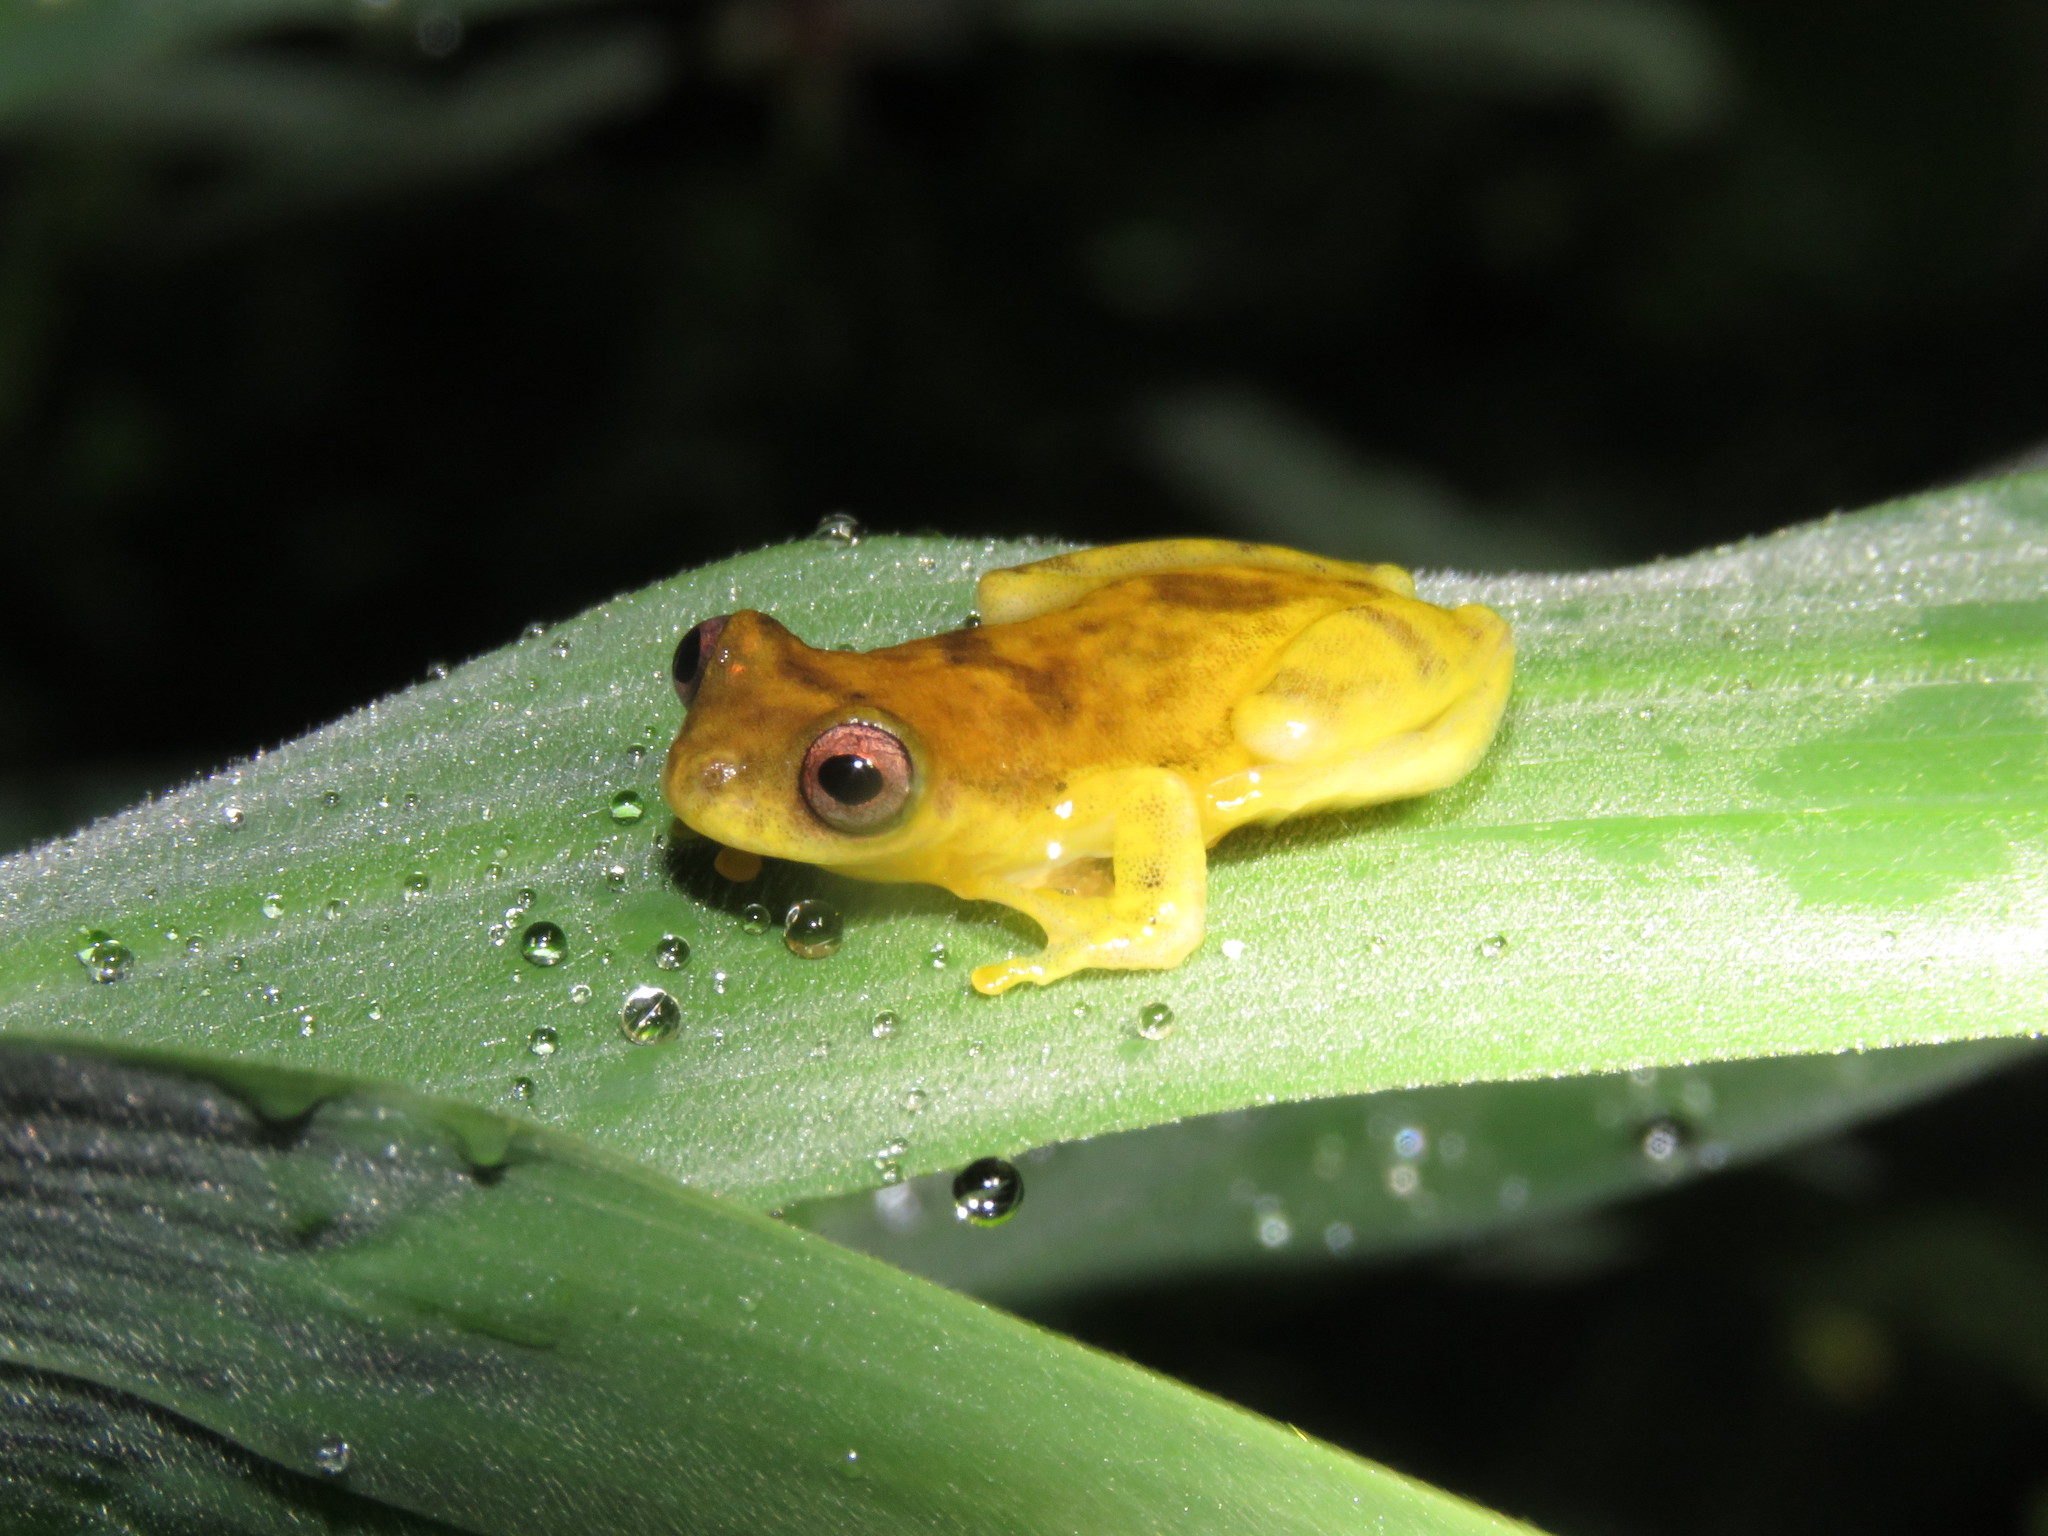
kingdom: Animalia
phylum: Chordata
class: Amphibia
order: Anura
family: Hylidae
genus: Dendropsophus
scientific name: Dendropsophus leali
